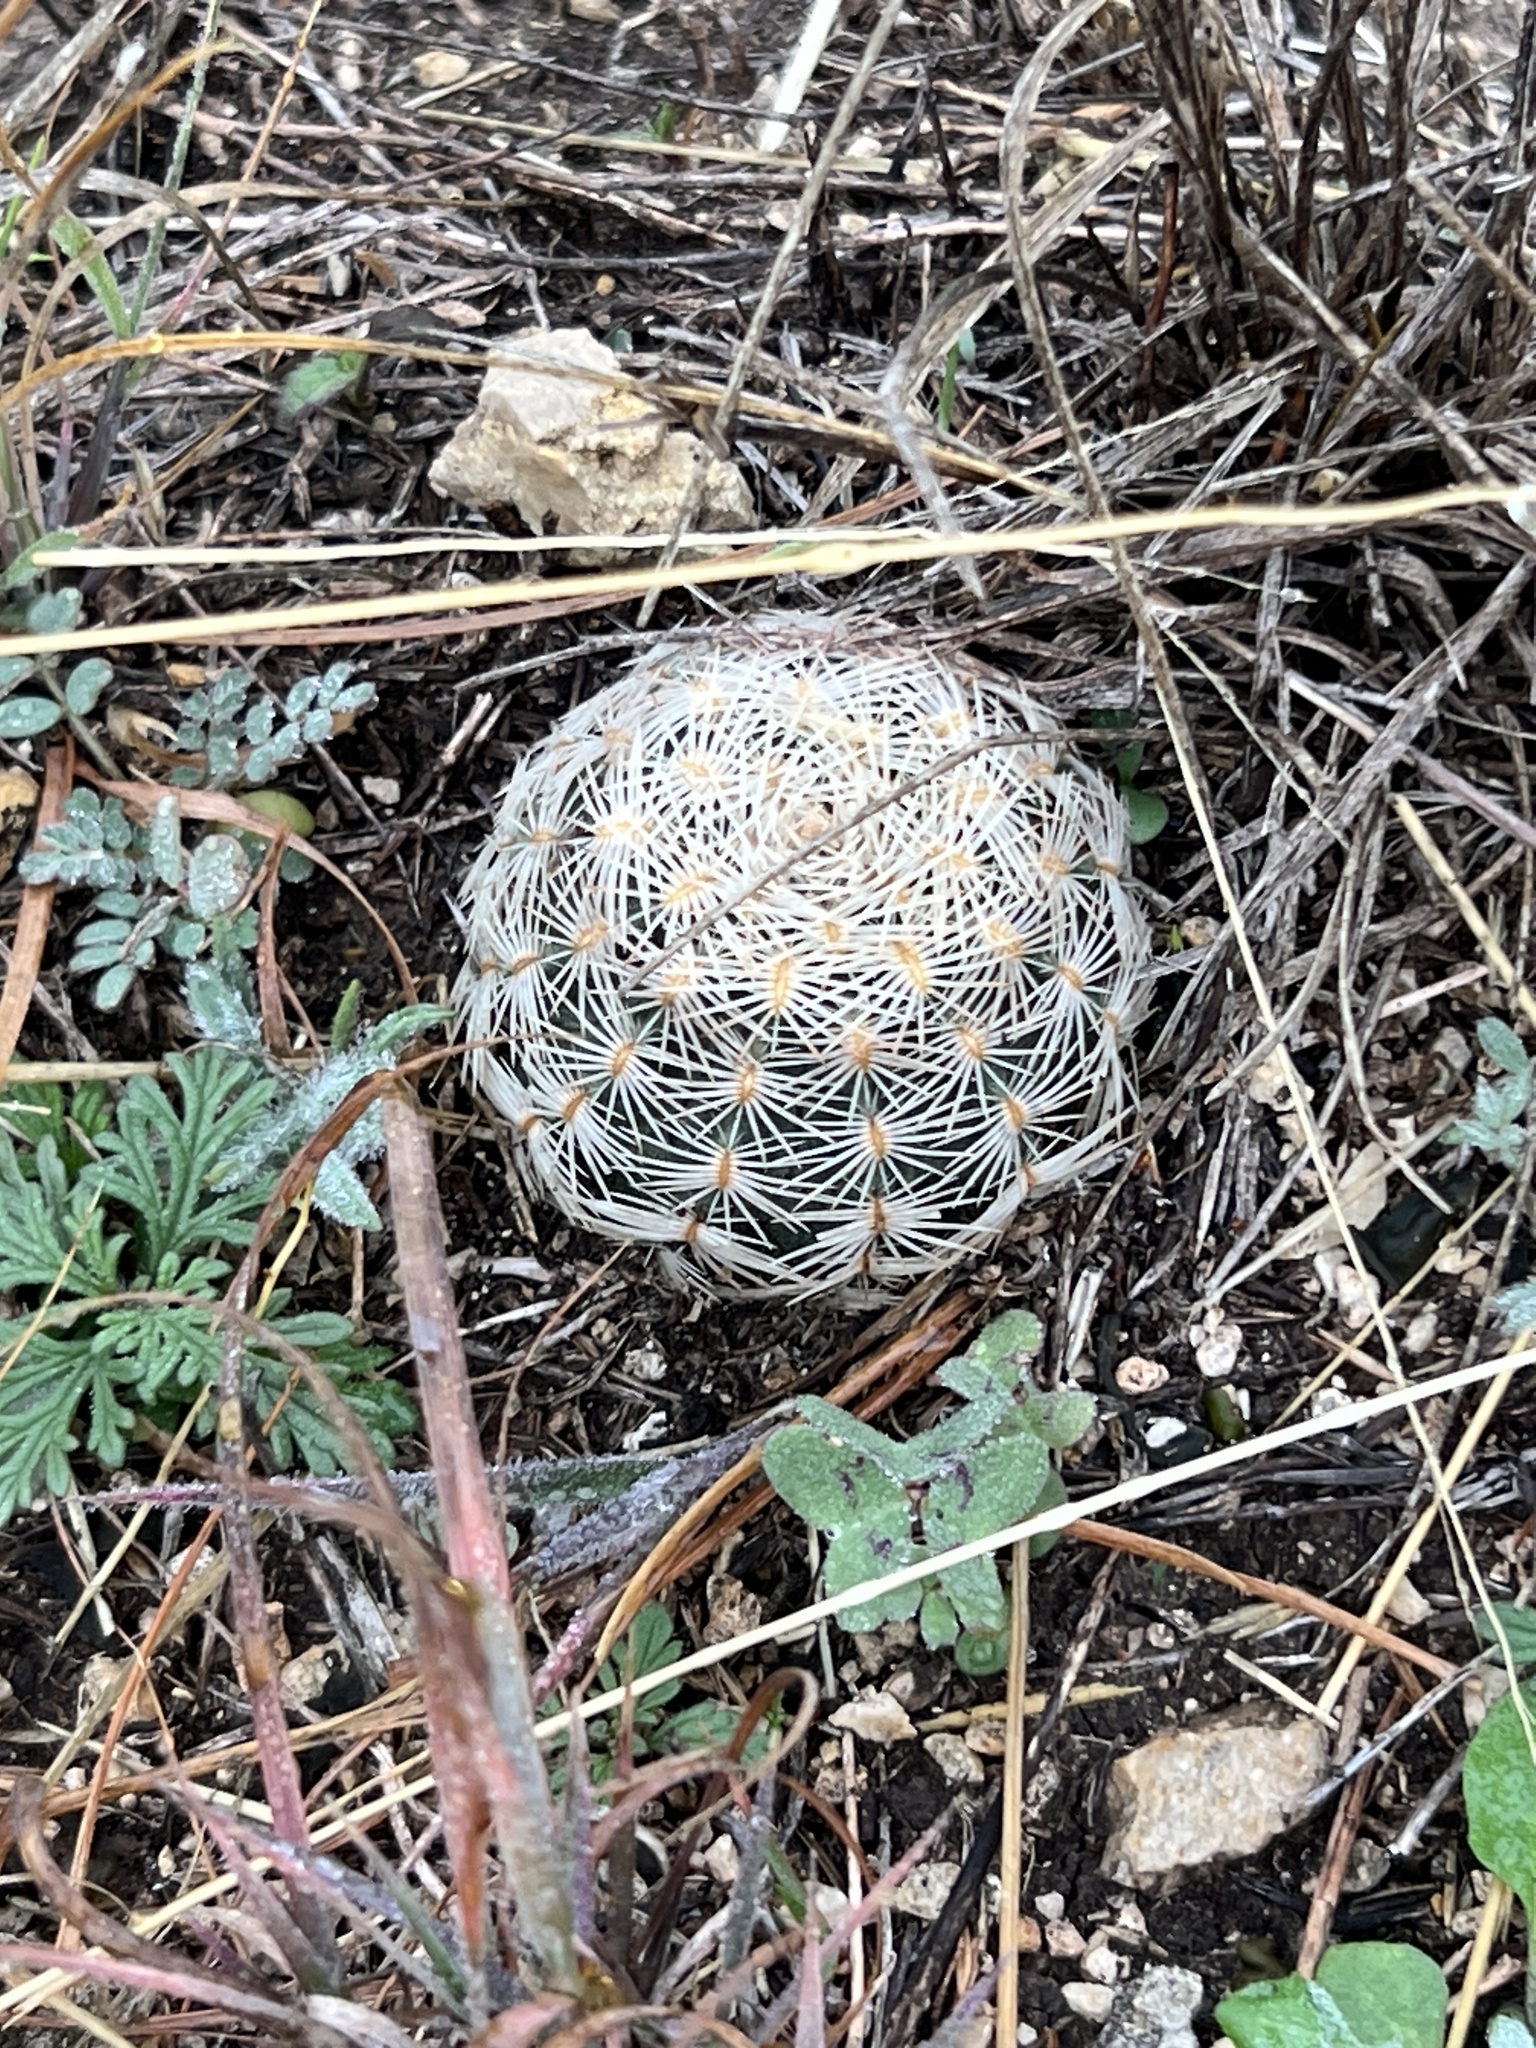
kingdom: Plantae
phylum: Tracheophyta
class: Magnoliopsida
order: Caryophyllales
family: Cactaceae
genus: Echinocereus
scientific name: Echinocereus reichenbachii
